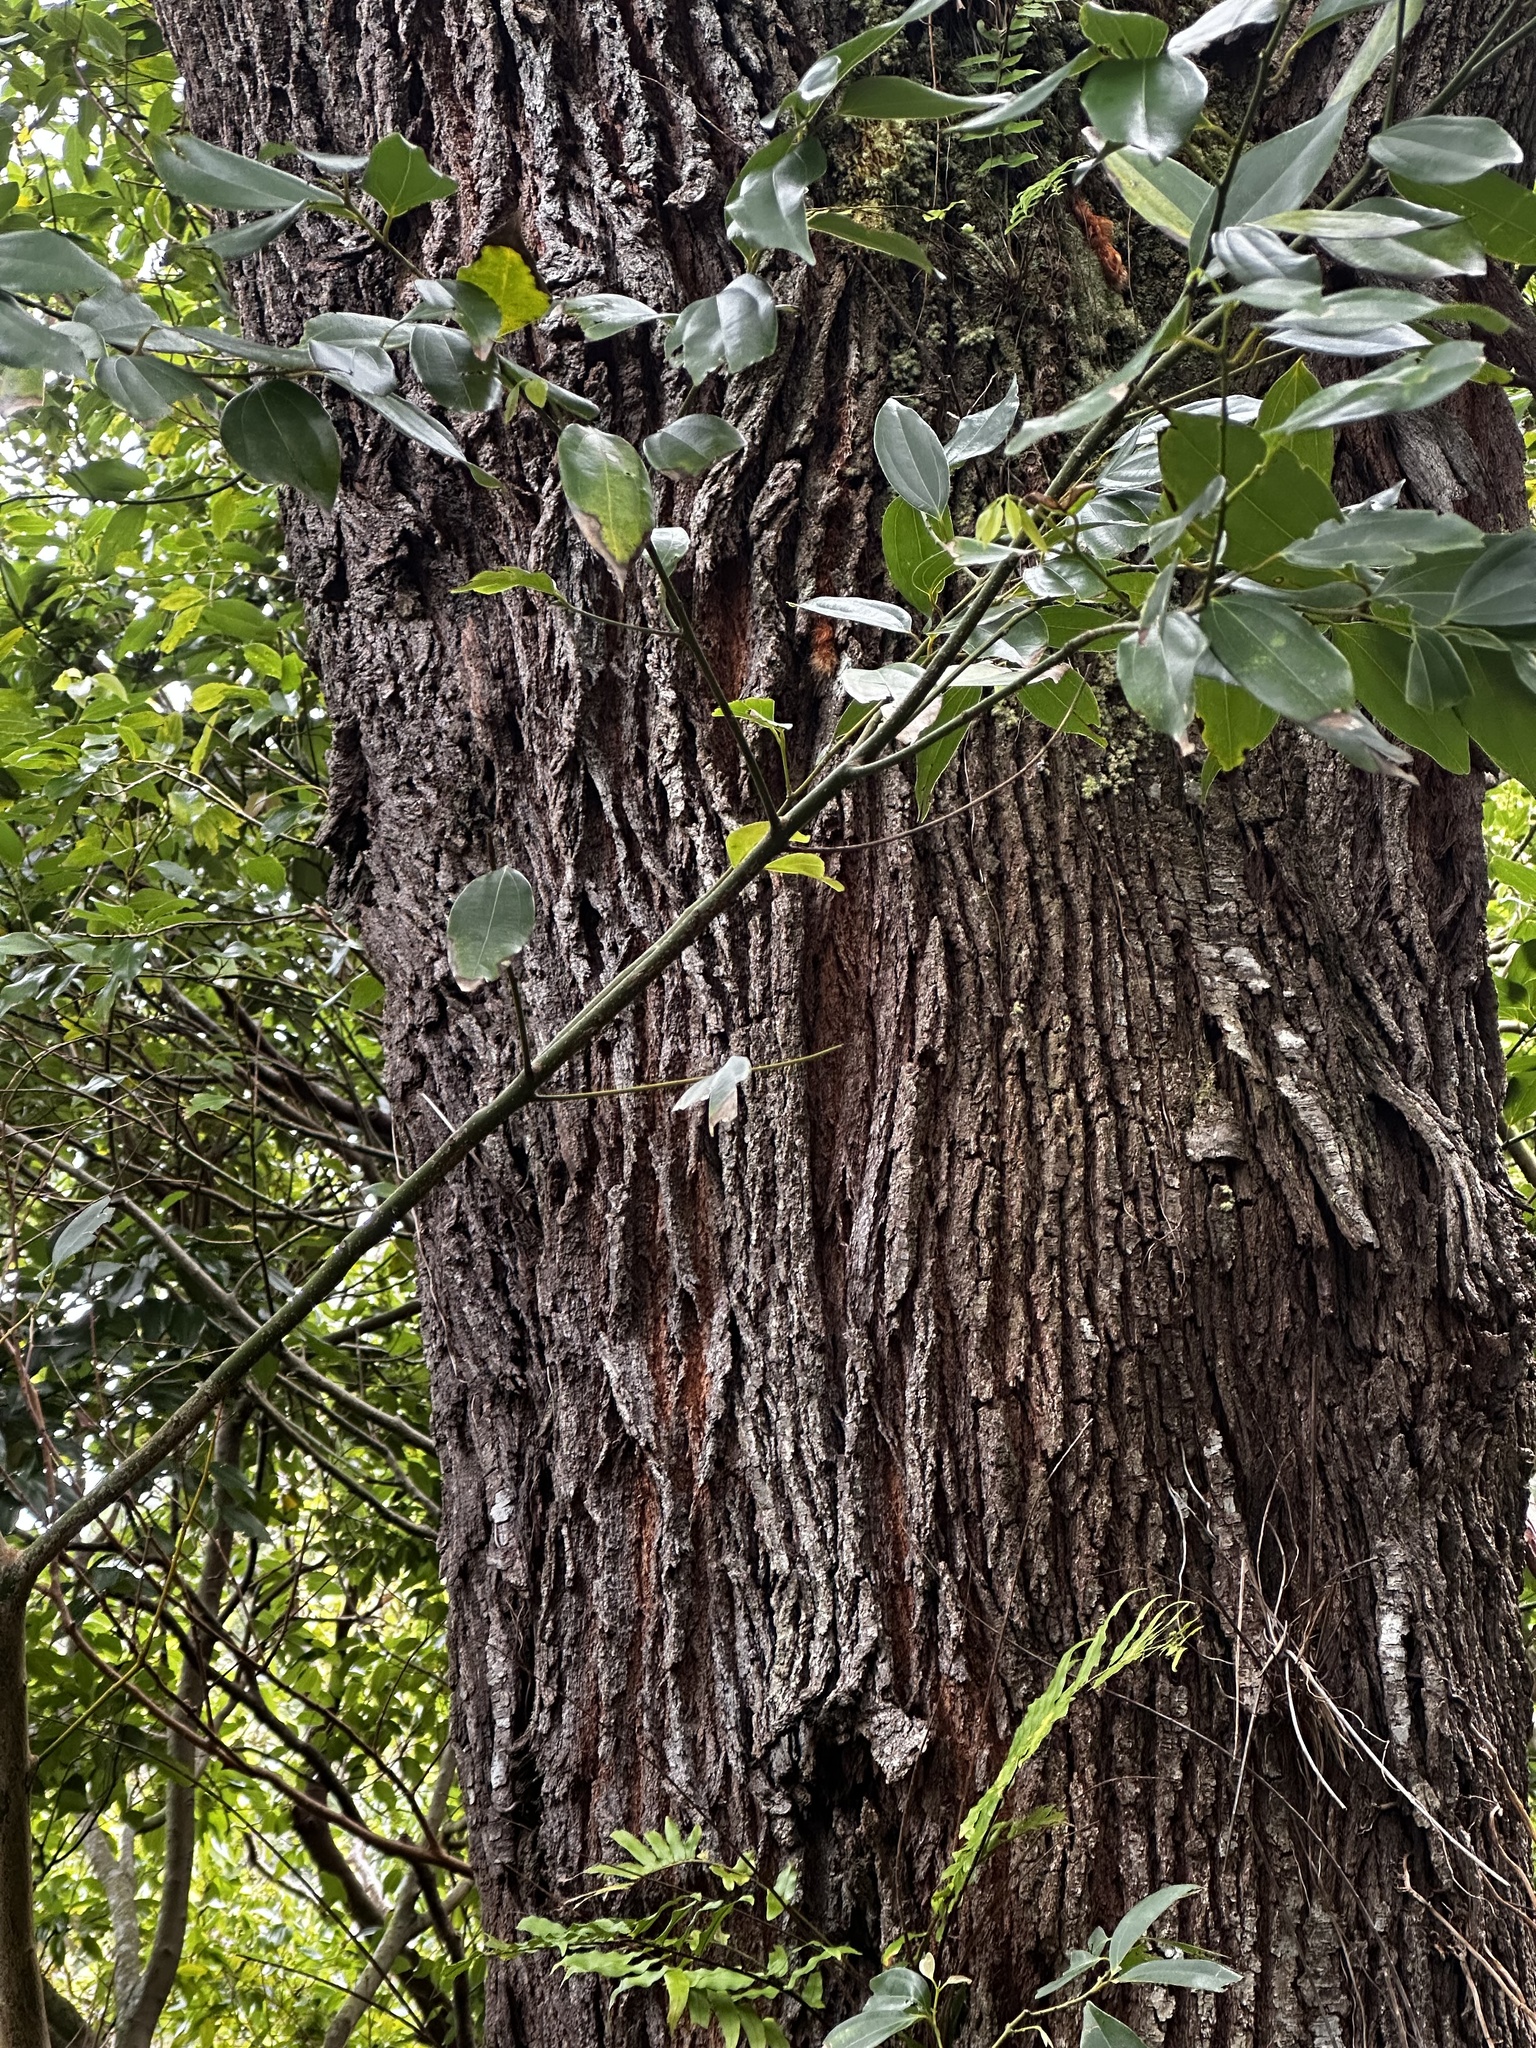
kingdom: Plantae
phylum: Tracheophyta
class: Magnoliopsida
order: Proteales
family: Proteaceae
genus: Grevillea
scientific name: Grevillea robusta
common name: Silkoak
